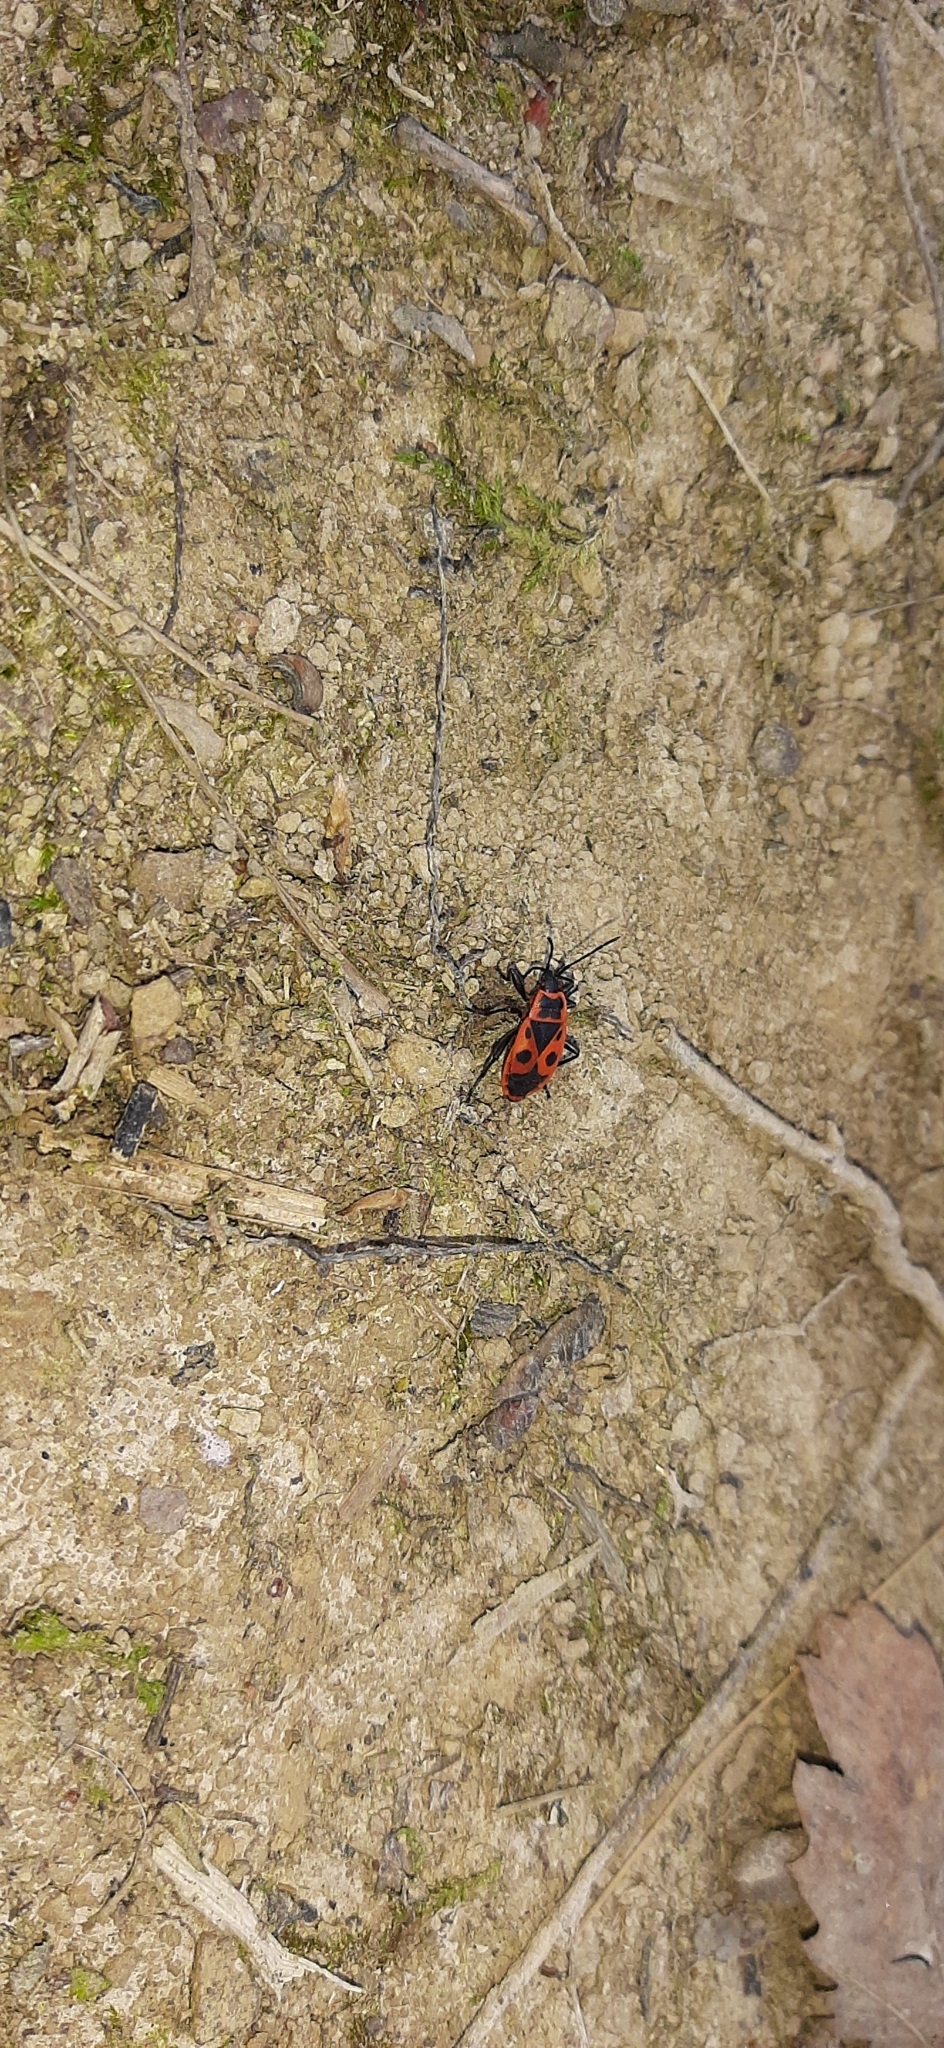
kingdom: Animalia
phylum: Arthropoda
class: Insecta
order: Hemiptera
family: Pyrrhocoridae
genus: Pyrrhocoris
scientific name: Pyrrhocoris apterus
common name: Firebug
